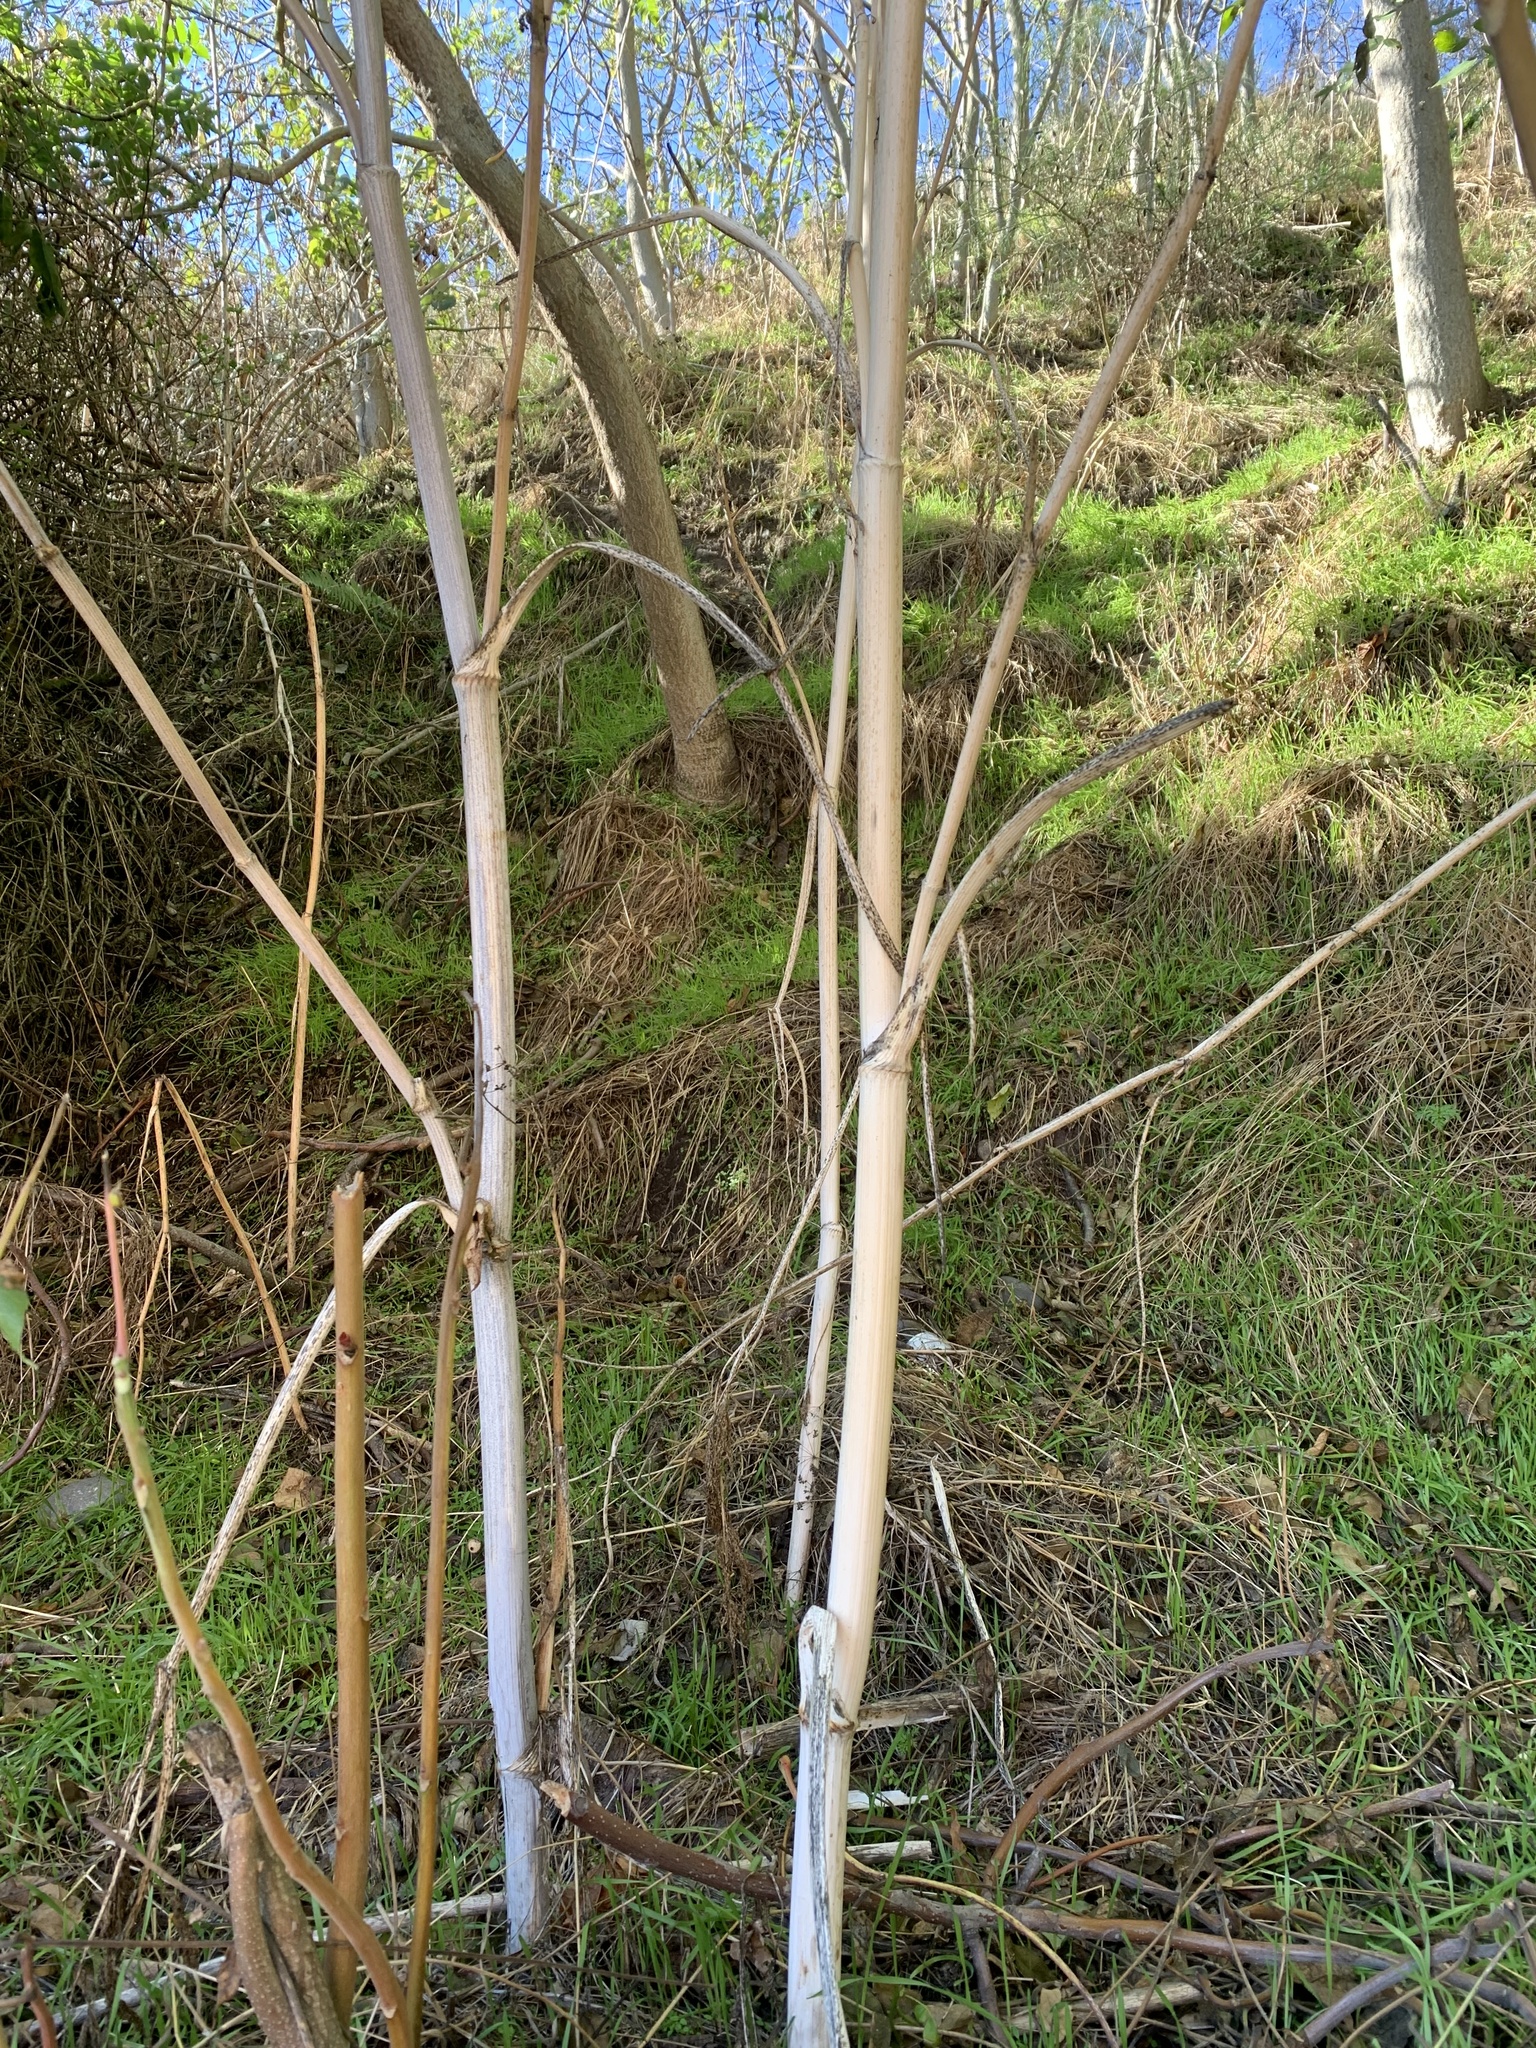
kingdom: Plantae
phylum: Tracheophyta
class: Magnoliopsida
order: Apiales
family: Apiaceae
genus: Conium
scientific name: Conium maculatum
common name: Hemlock
